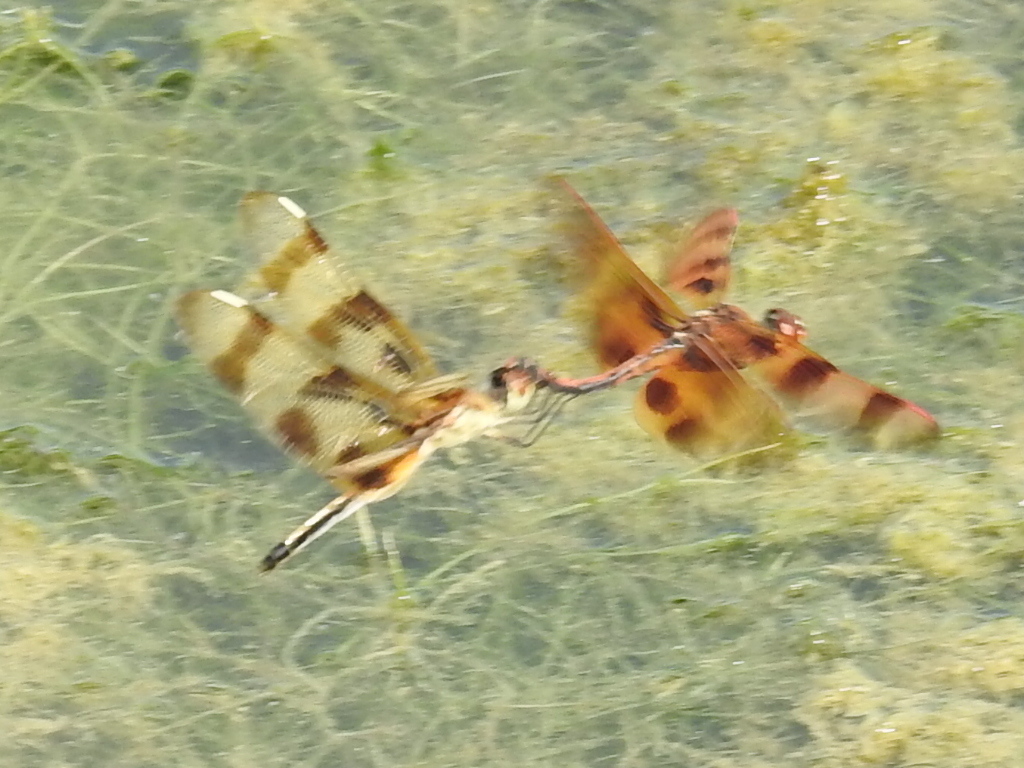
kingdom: Animalia
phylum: Arthropoda
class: Insecta
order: Odonata
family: Libellulidae
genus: Celithemis
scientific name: Celithemis eponina
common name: Halloween pennant
